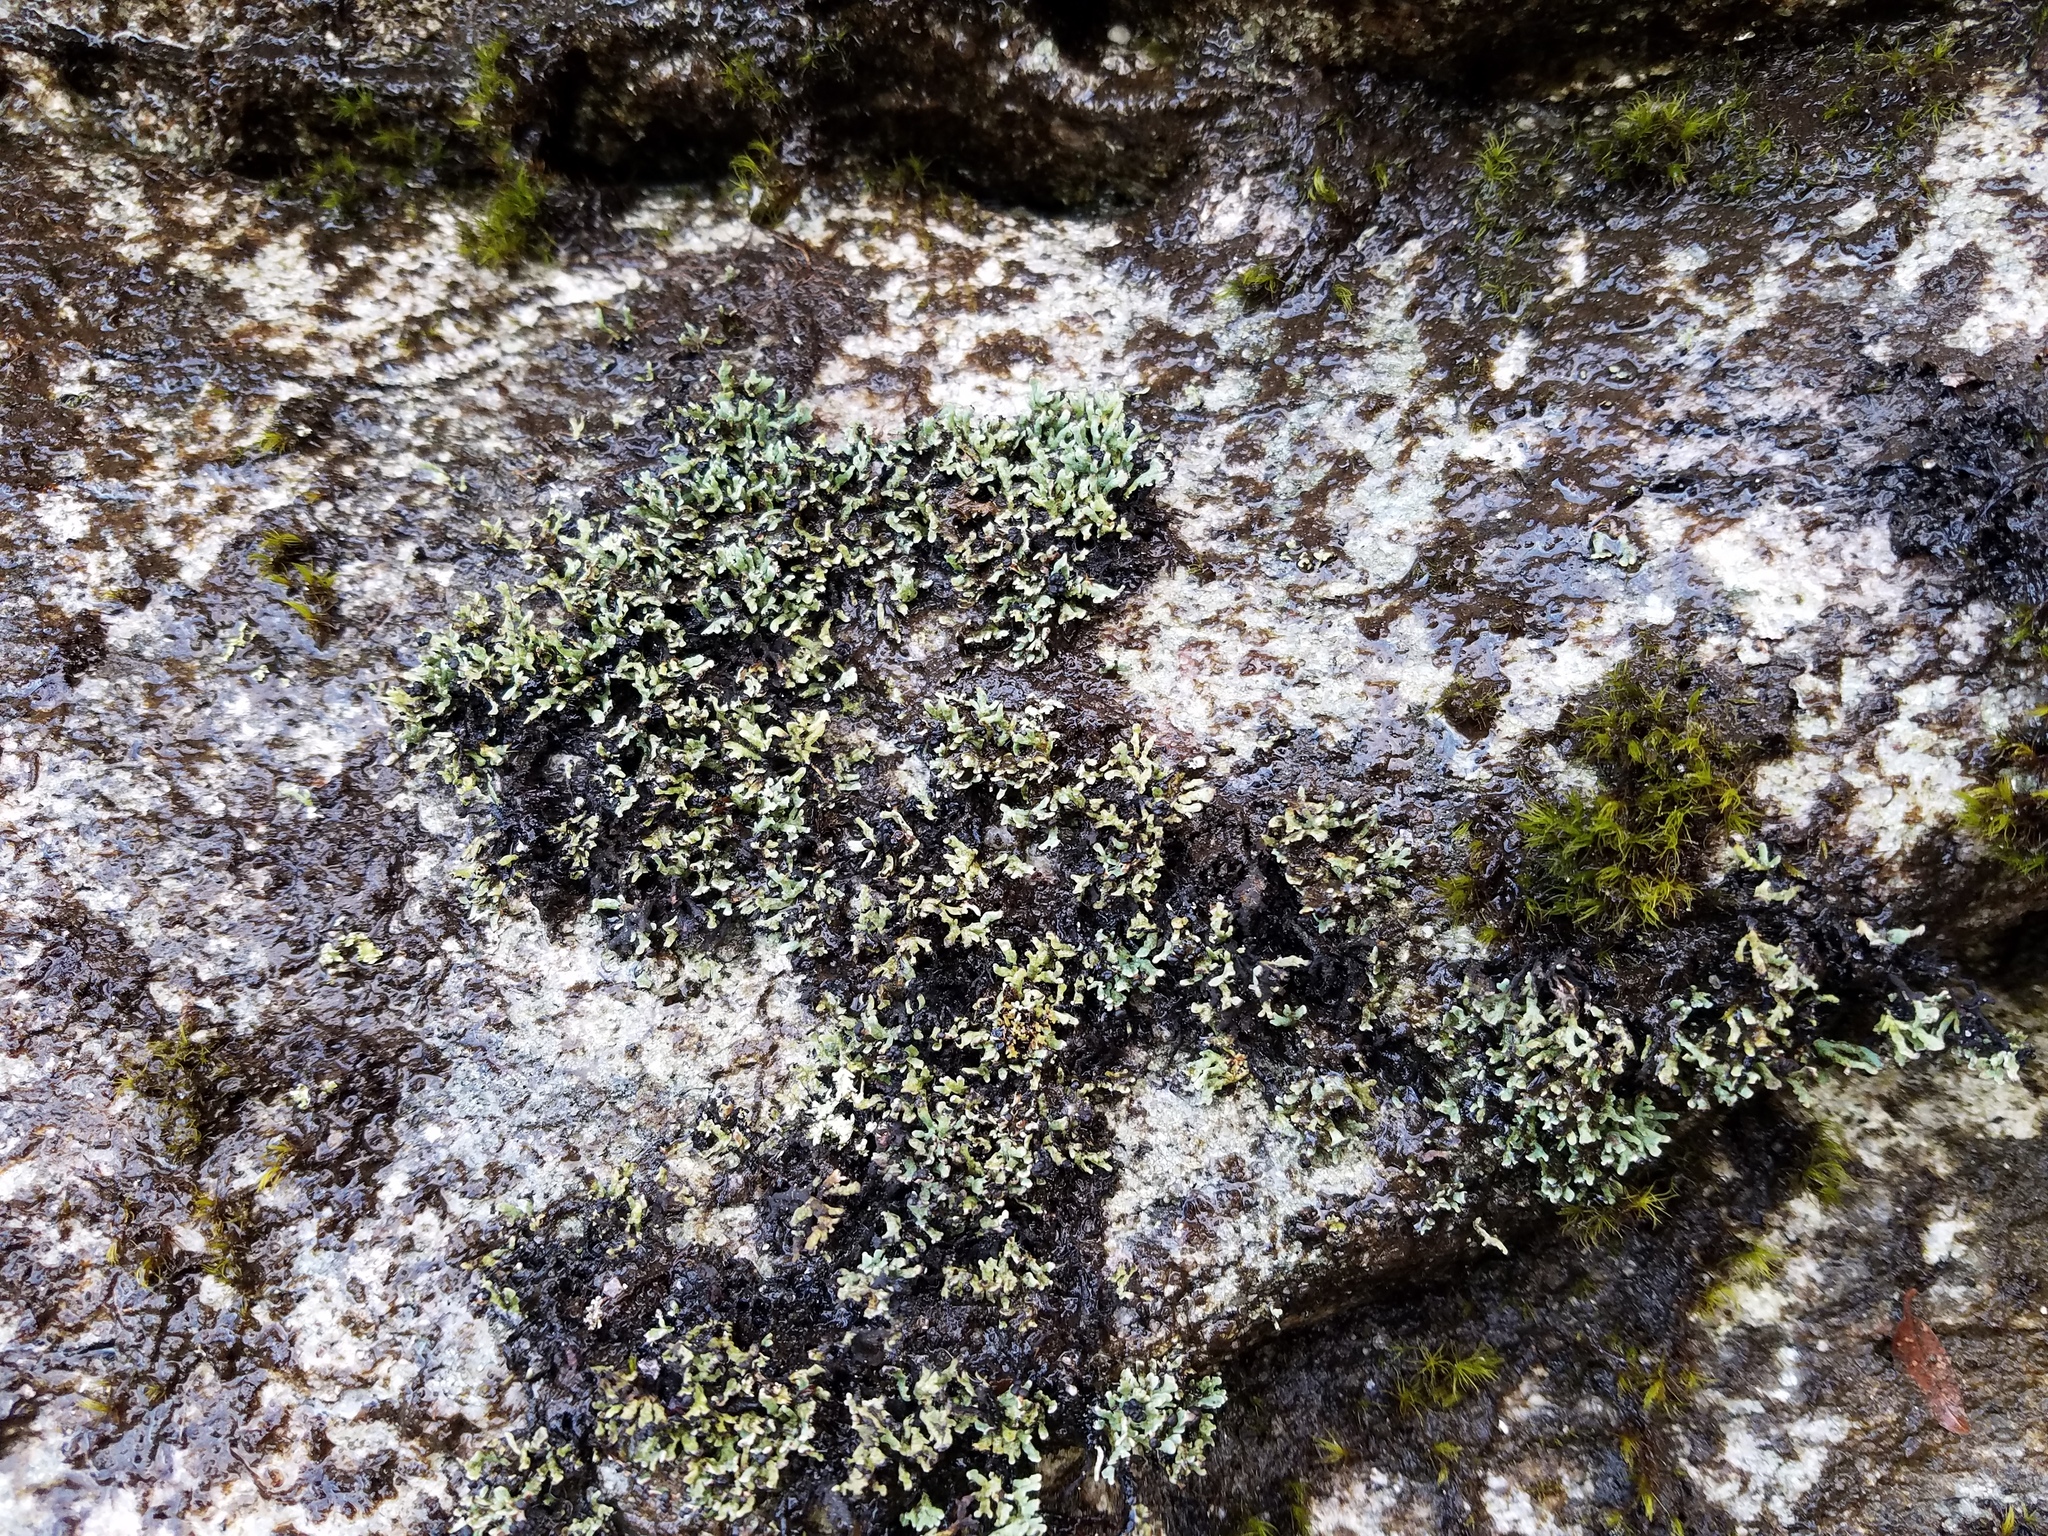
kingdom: Fungi
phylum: Ascomycota
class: Lecanoromycetes
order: Lecanorales
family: Cladoniaceae
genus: Cetradonia
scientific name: Cetradonia linearis
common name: Rock gnome lichen
